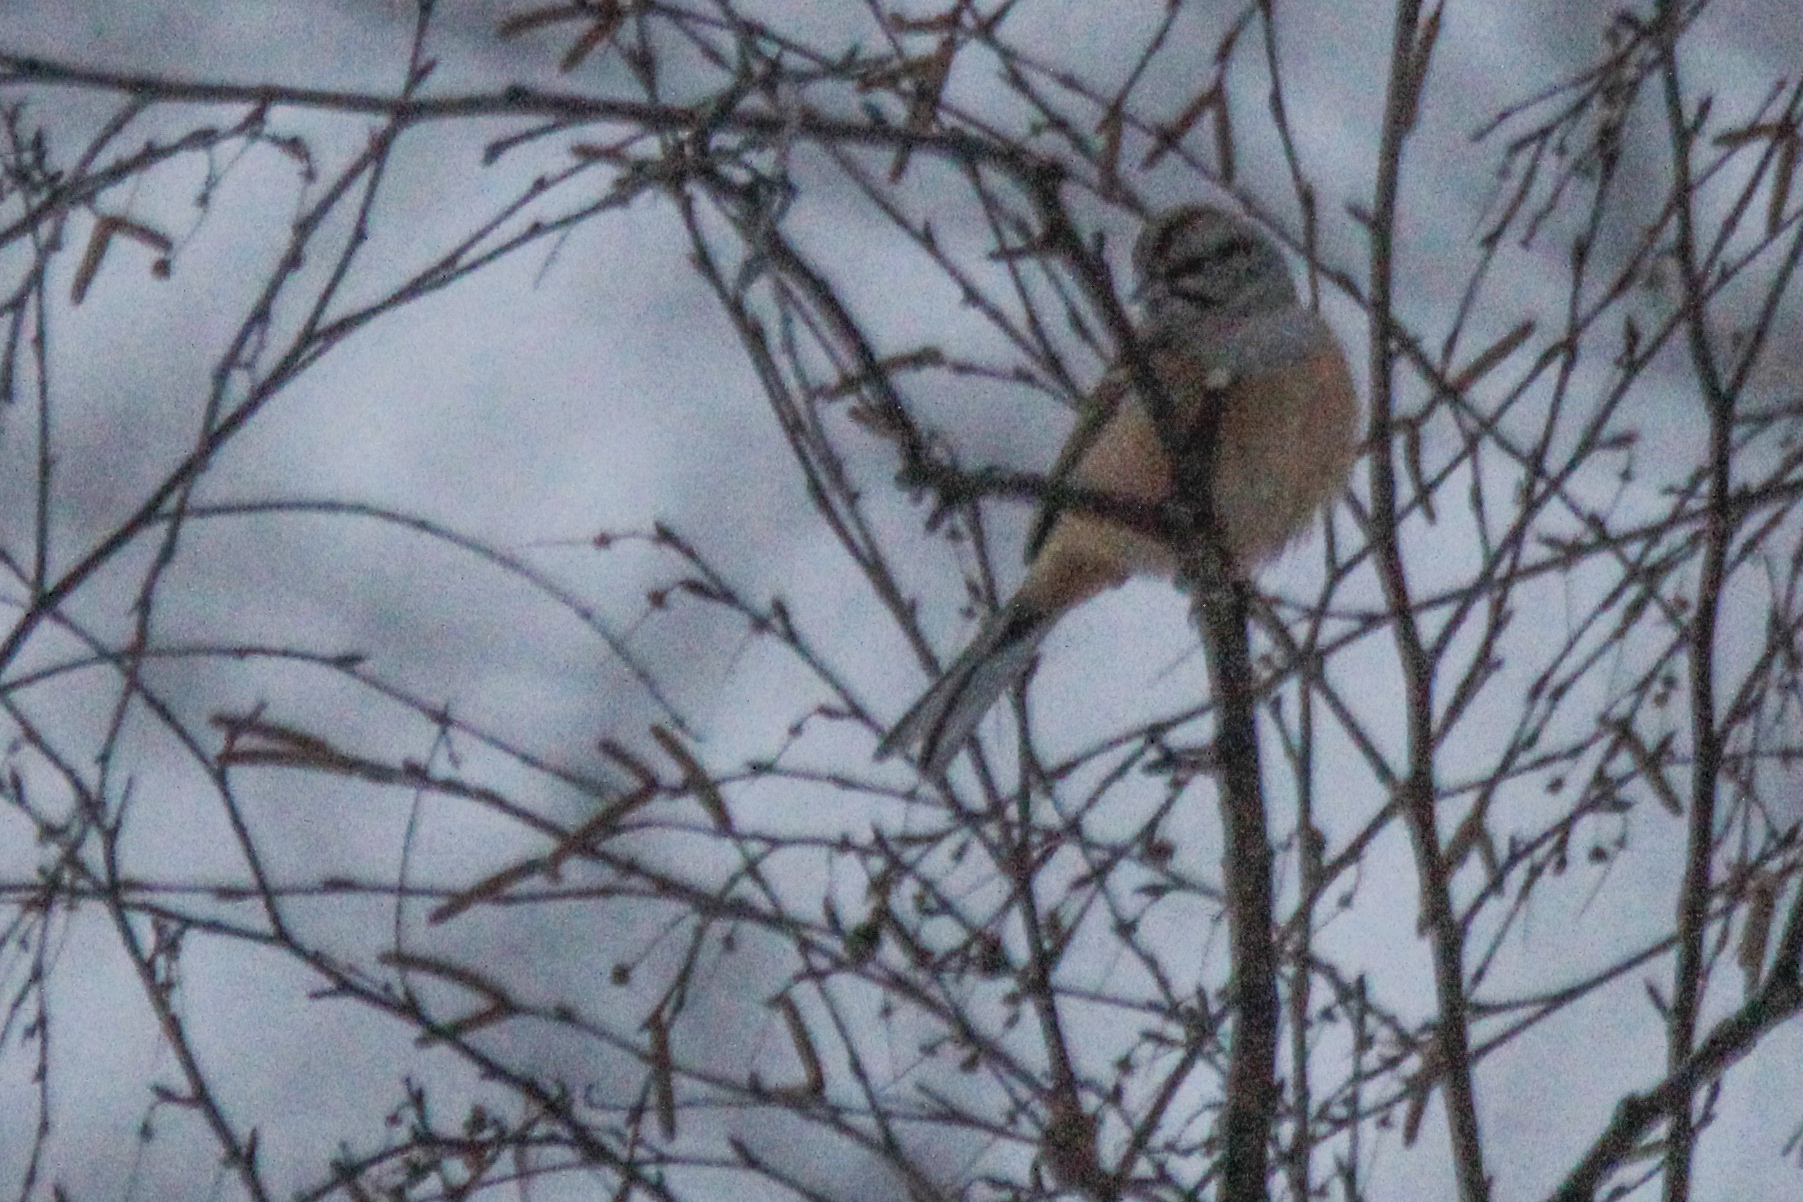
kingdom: Animalia
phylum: Chordata
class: Aves
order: Passeriformes
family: Emberizidae
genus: Emberiza
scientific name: Emberiza godlewskii
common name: Godlewski's bunting
